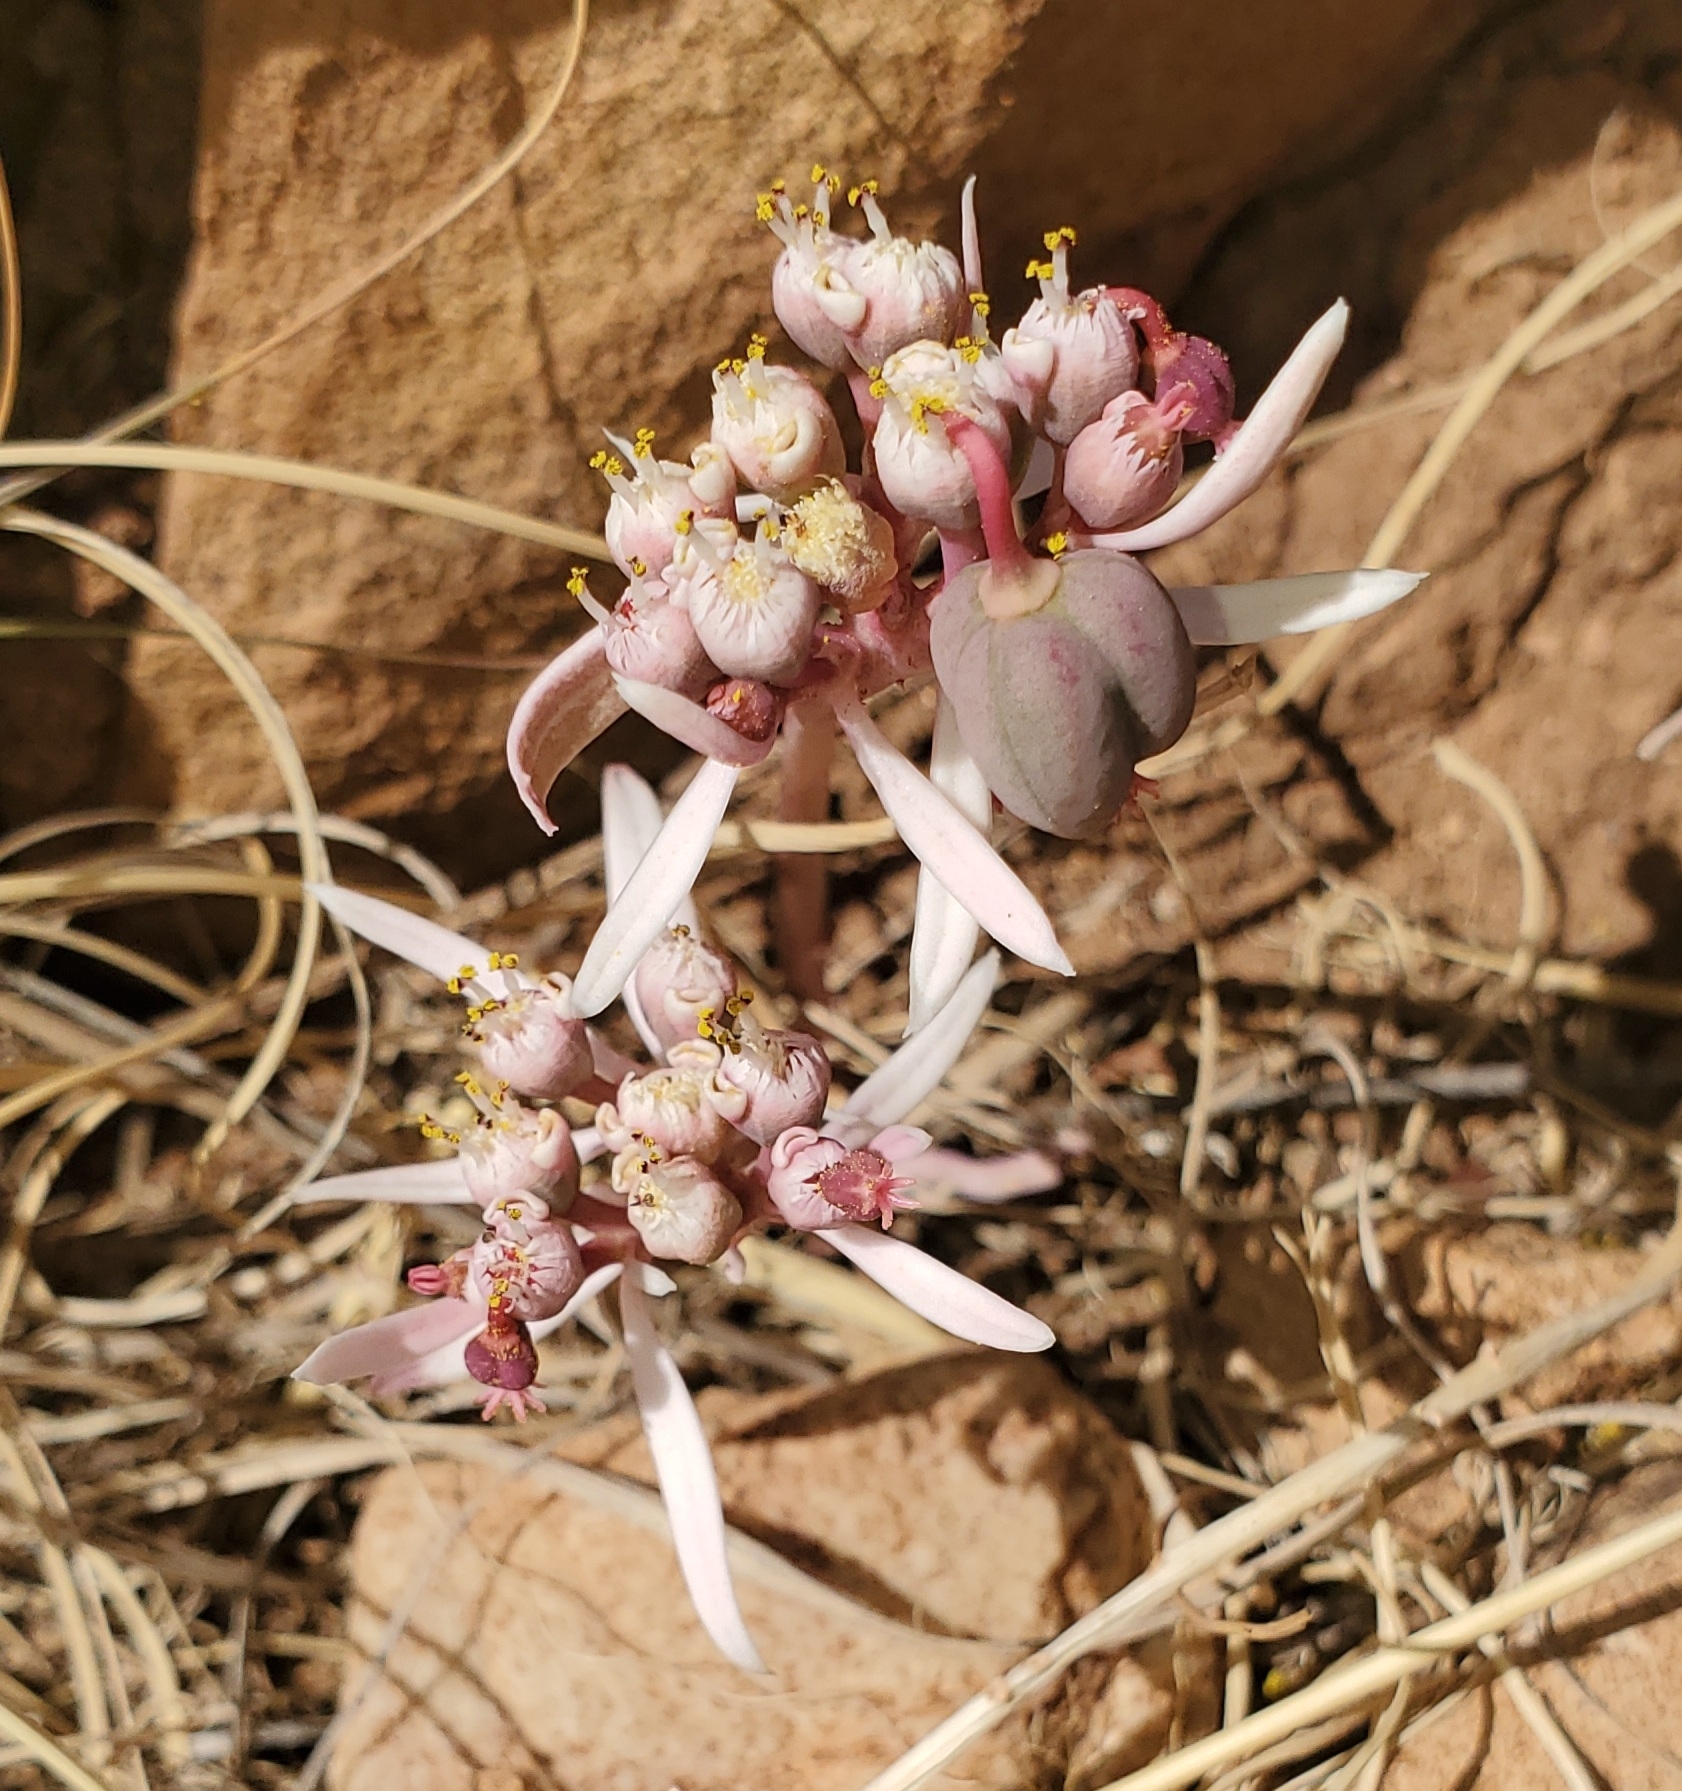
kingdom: Plantae
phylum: Tracheophyta
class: Magnoliopsida
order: Malpighiales
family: Euphorbiaceae
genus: Euphorbia
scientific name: Euphorbia radians
